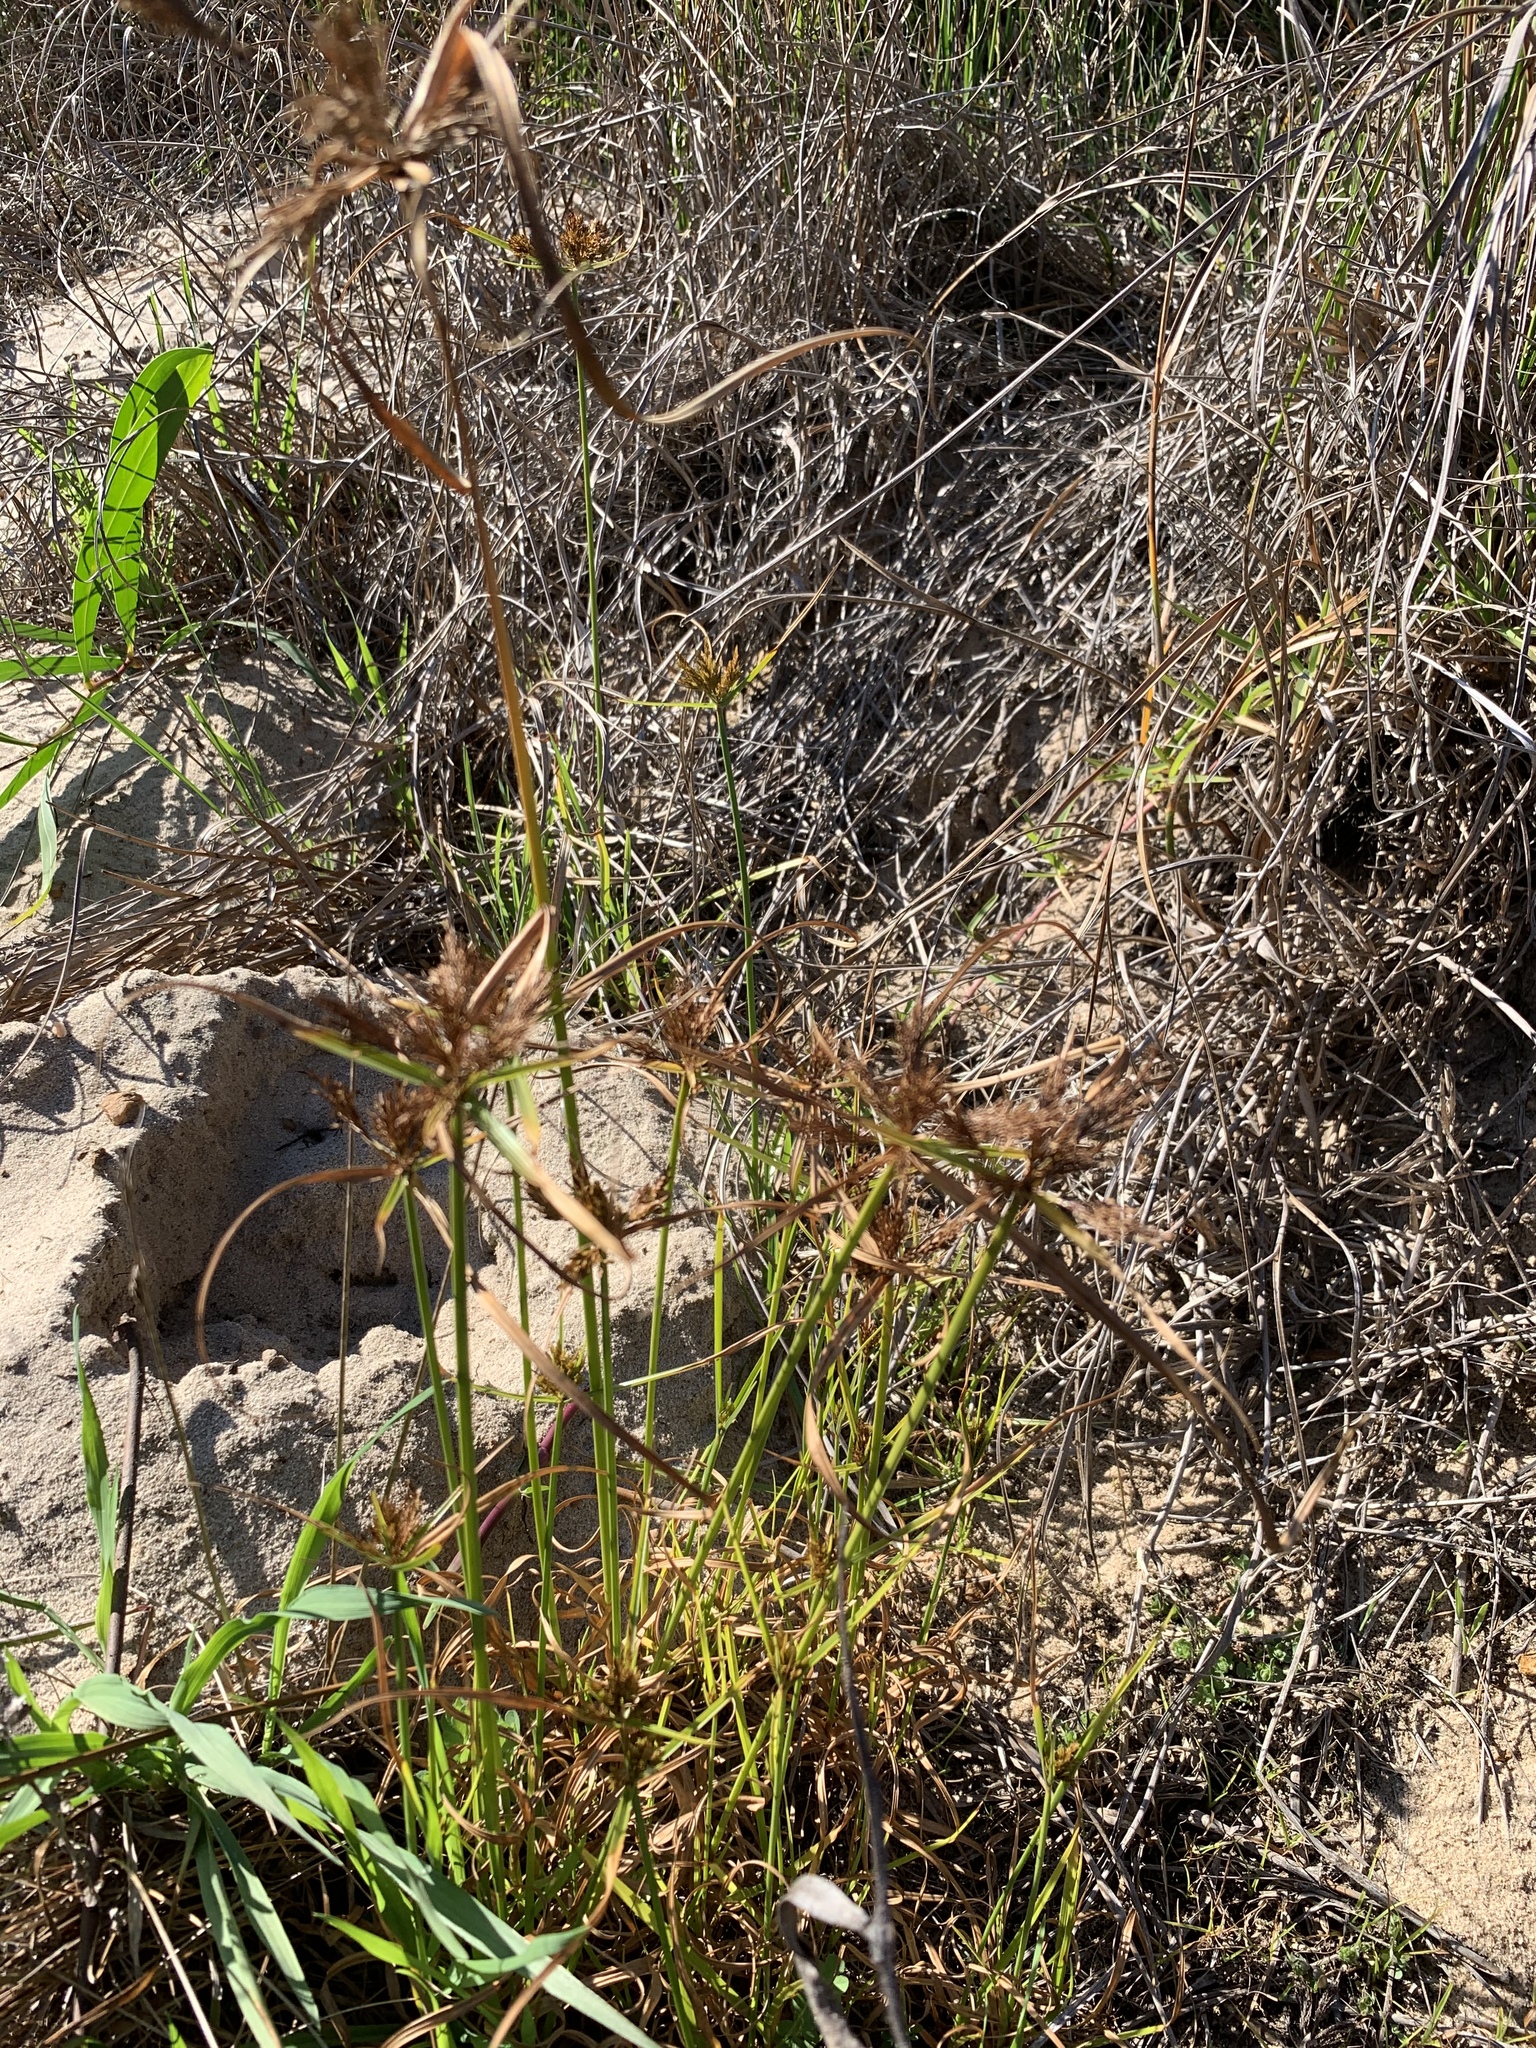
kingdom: Plantae
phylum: Tracheophyta
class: Liliopsida
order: Poales
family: Cyperaceae
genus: Cyperus
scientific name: Cyperus polystachyos
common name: Bunchy flat sedge
